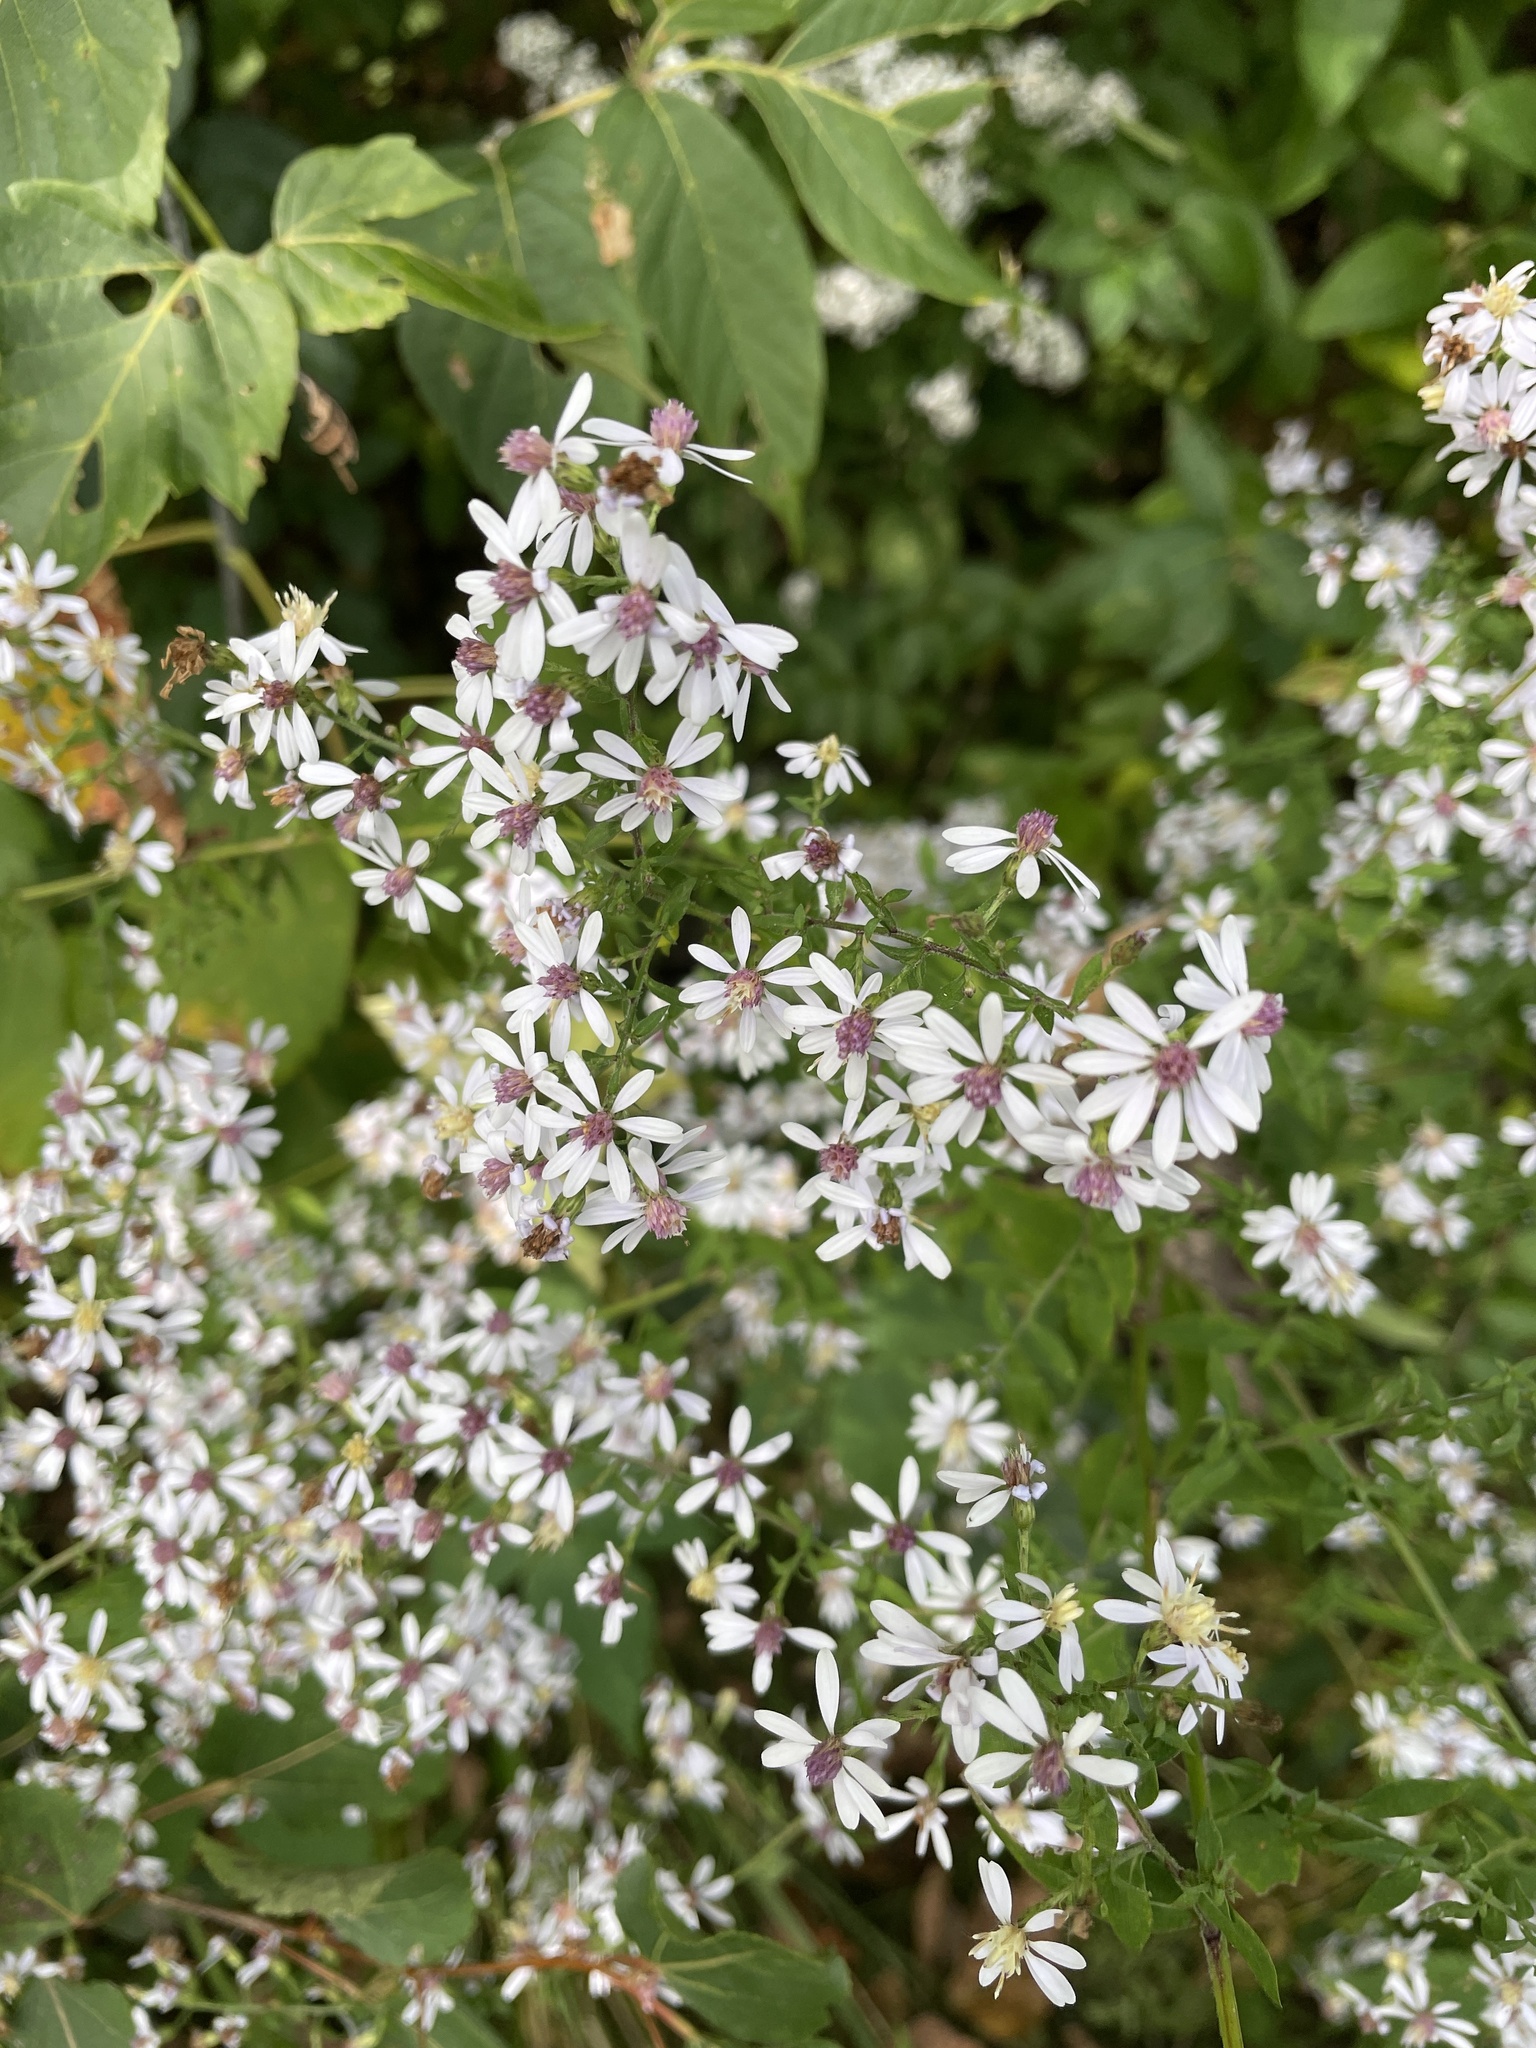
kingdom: Plantae
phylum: Tracheophyta
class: Magnoliopsida
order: Asterales
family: Asteraceae
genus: Symphyotrichum
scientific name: Symphyotrichum cordifolium
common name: Beeweed
